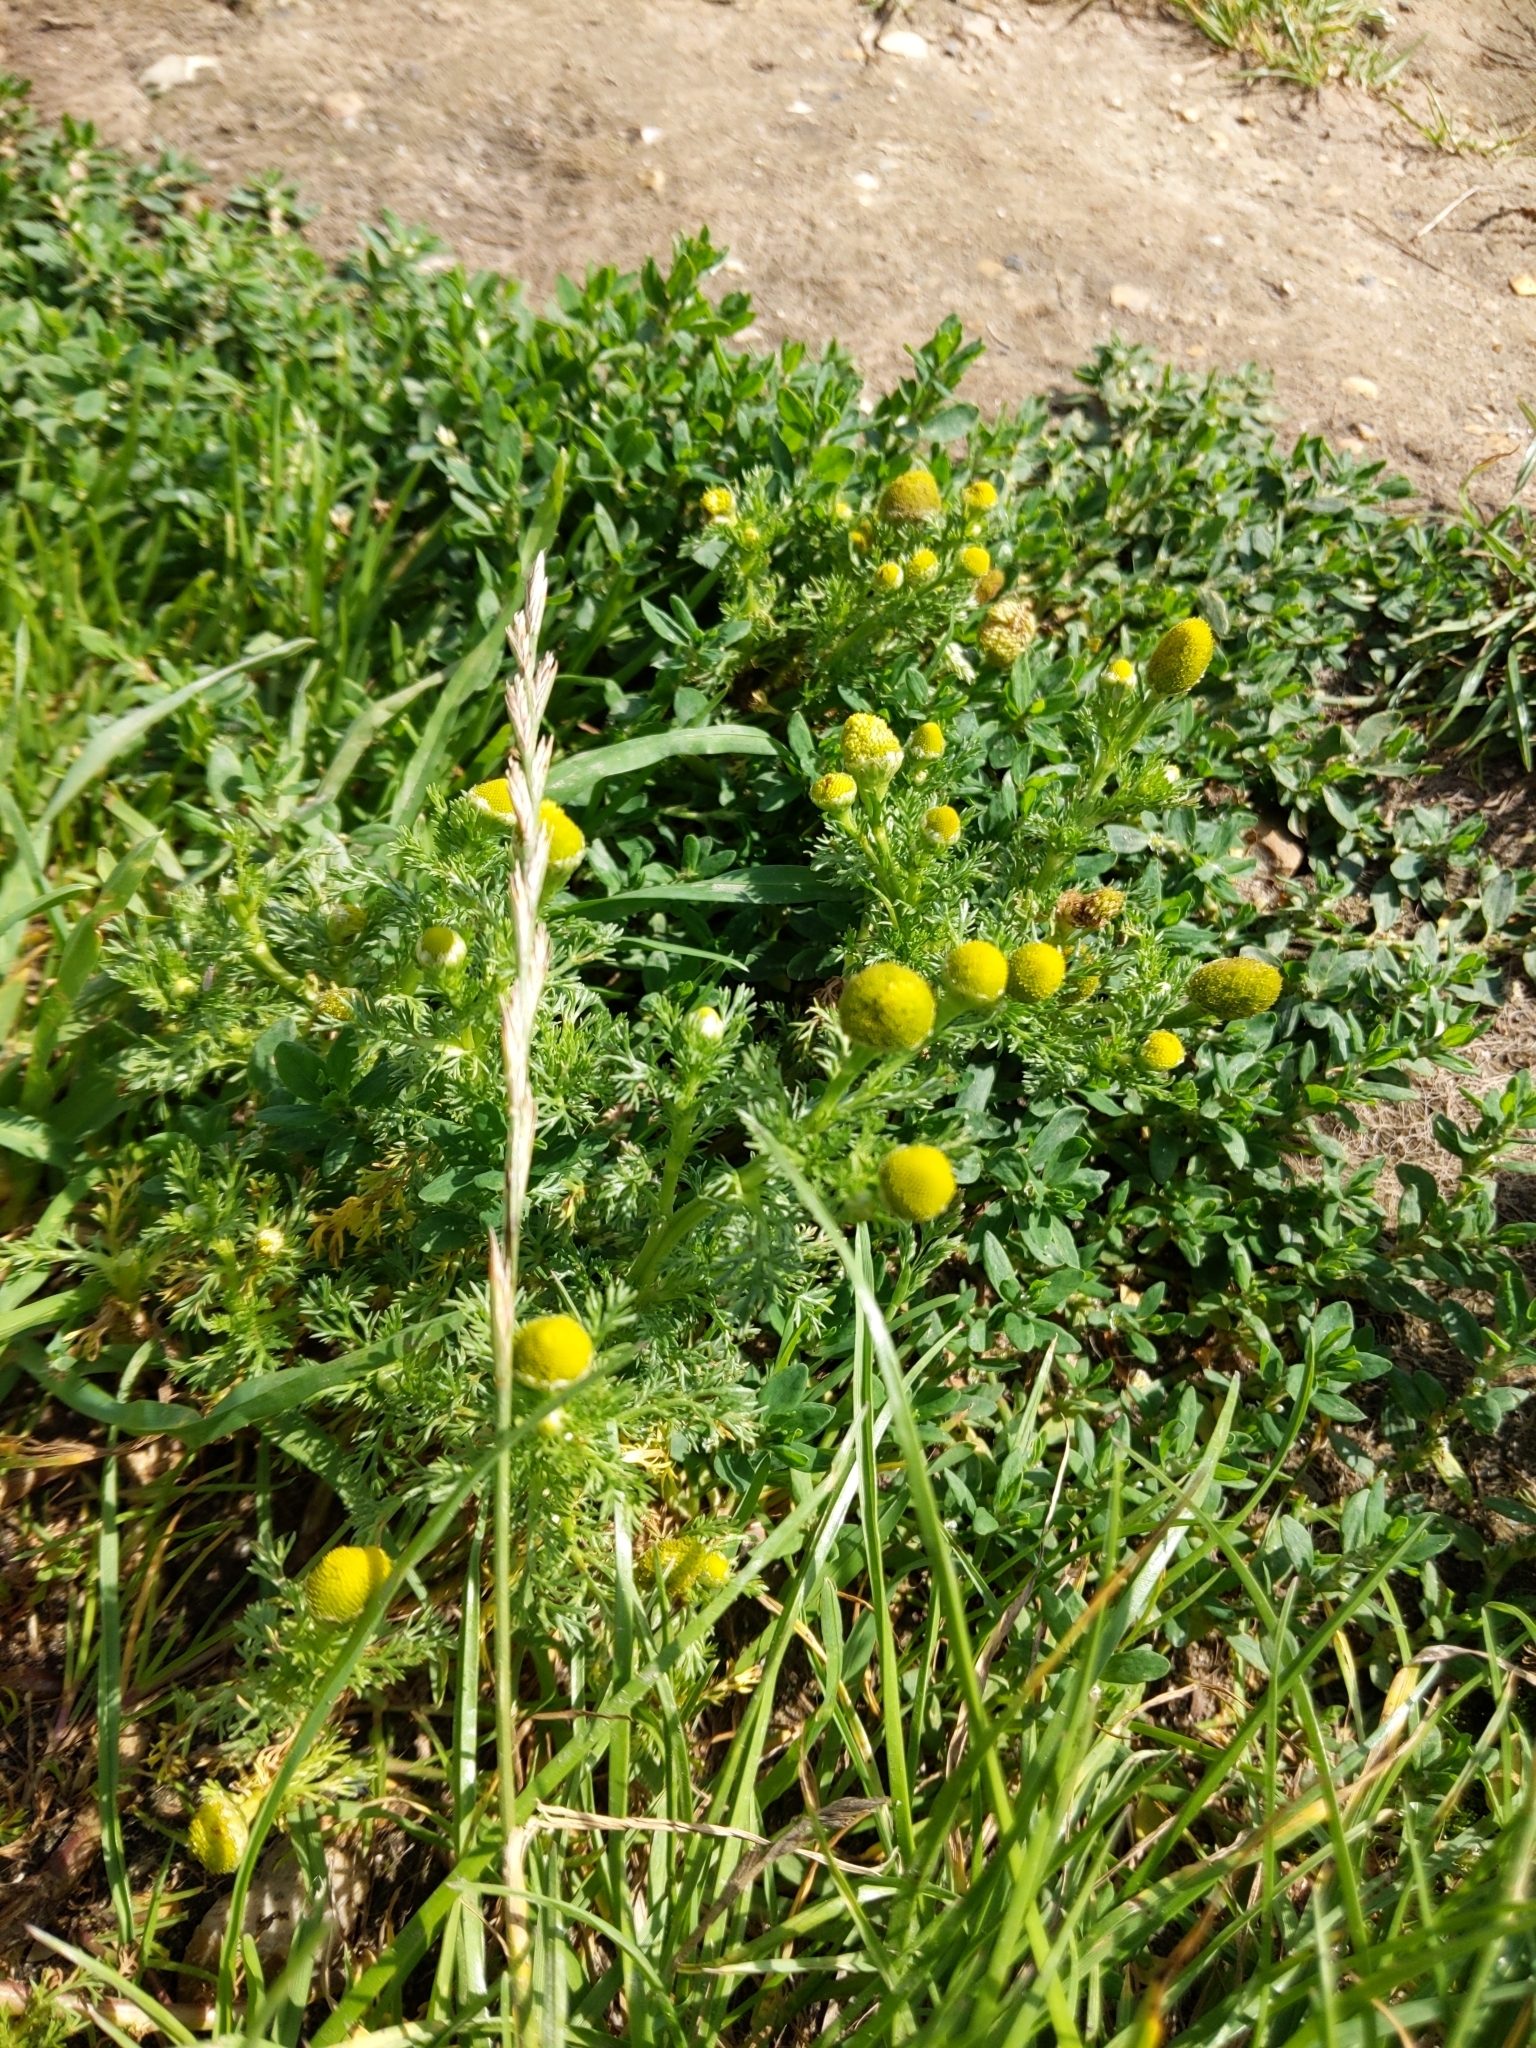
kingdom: Plantae
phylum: Tracheophyta
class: Magnoliopsida
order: Asterales
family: Asteraceae
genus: Matricaria
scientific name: Matricaria discoidea
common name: Disc mayweed
